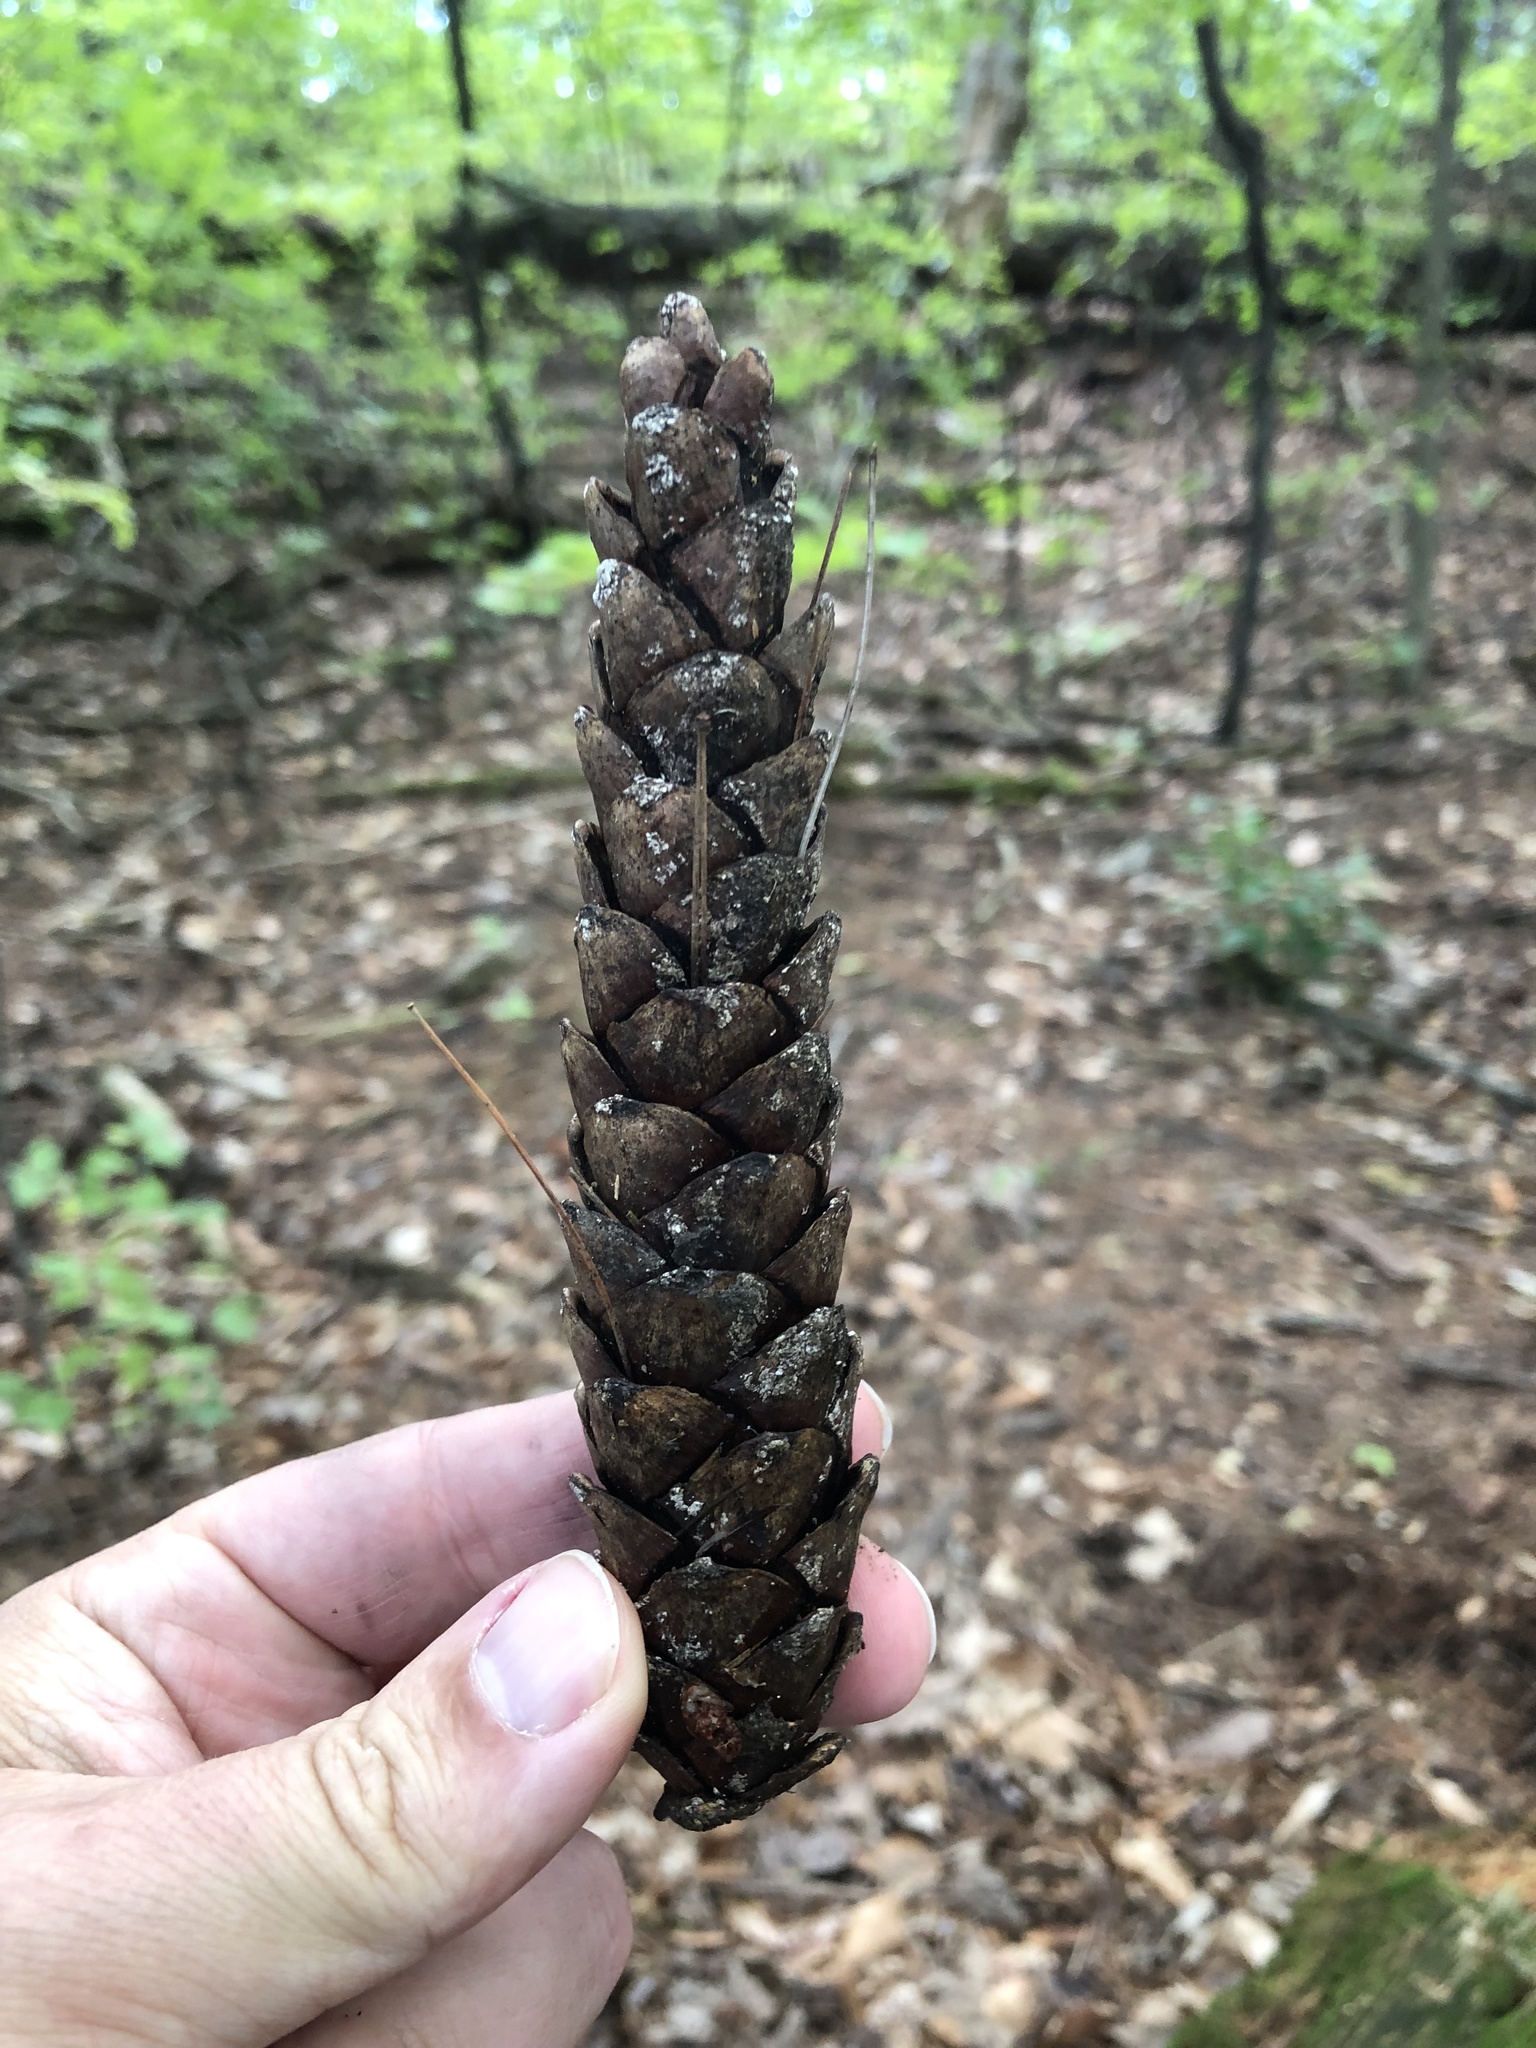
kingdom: Plantae
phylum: Tracheophyta
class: Pinopsida
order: Pinales
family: Pinaceae
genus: Pinus
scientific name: Pinus strobus
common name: Weymouth pine
